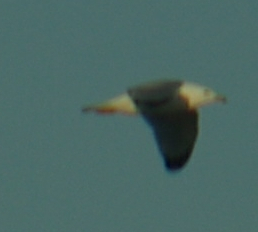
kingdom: Animalia
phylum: Chordata
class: Aves
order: Charadriiformes
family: Laridae
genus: Larus
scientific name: Larus delawarensis
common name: Ring-billed gull
